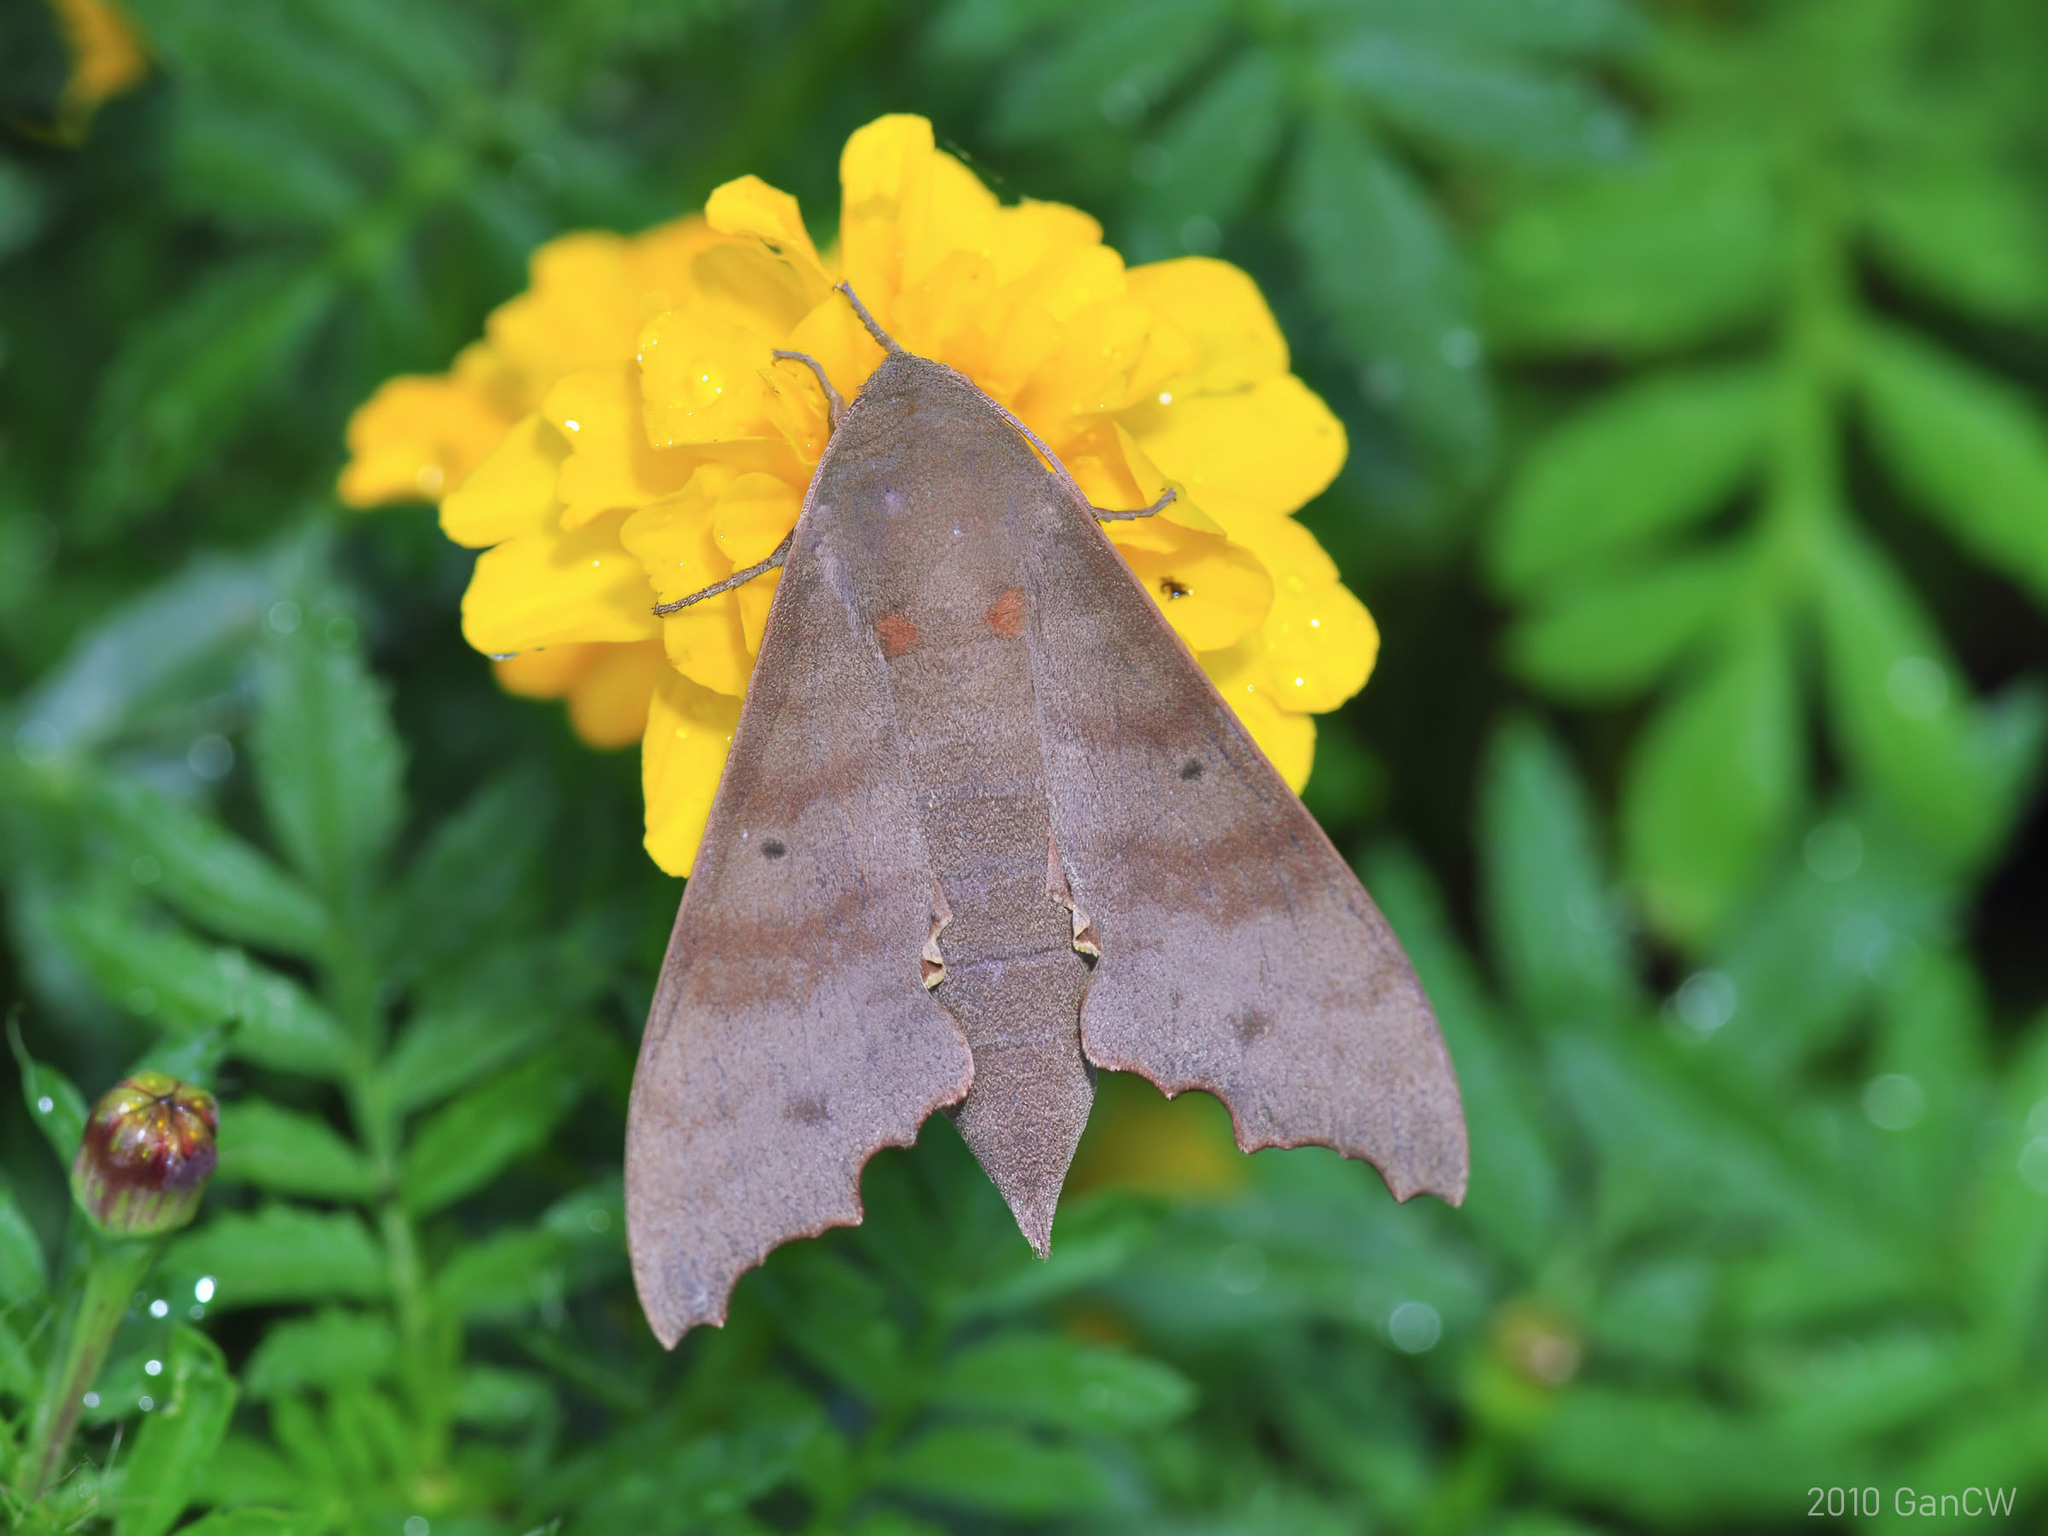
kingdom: Animalia
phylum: Arthropoda
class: Insecta
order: Lepidoptera
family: Sphingidae
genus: Cypa
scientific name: Cypa decolor
